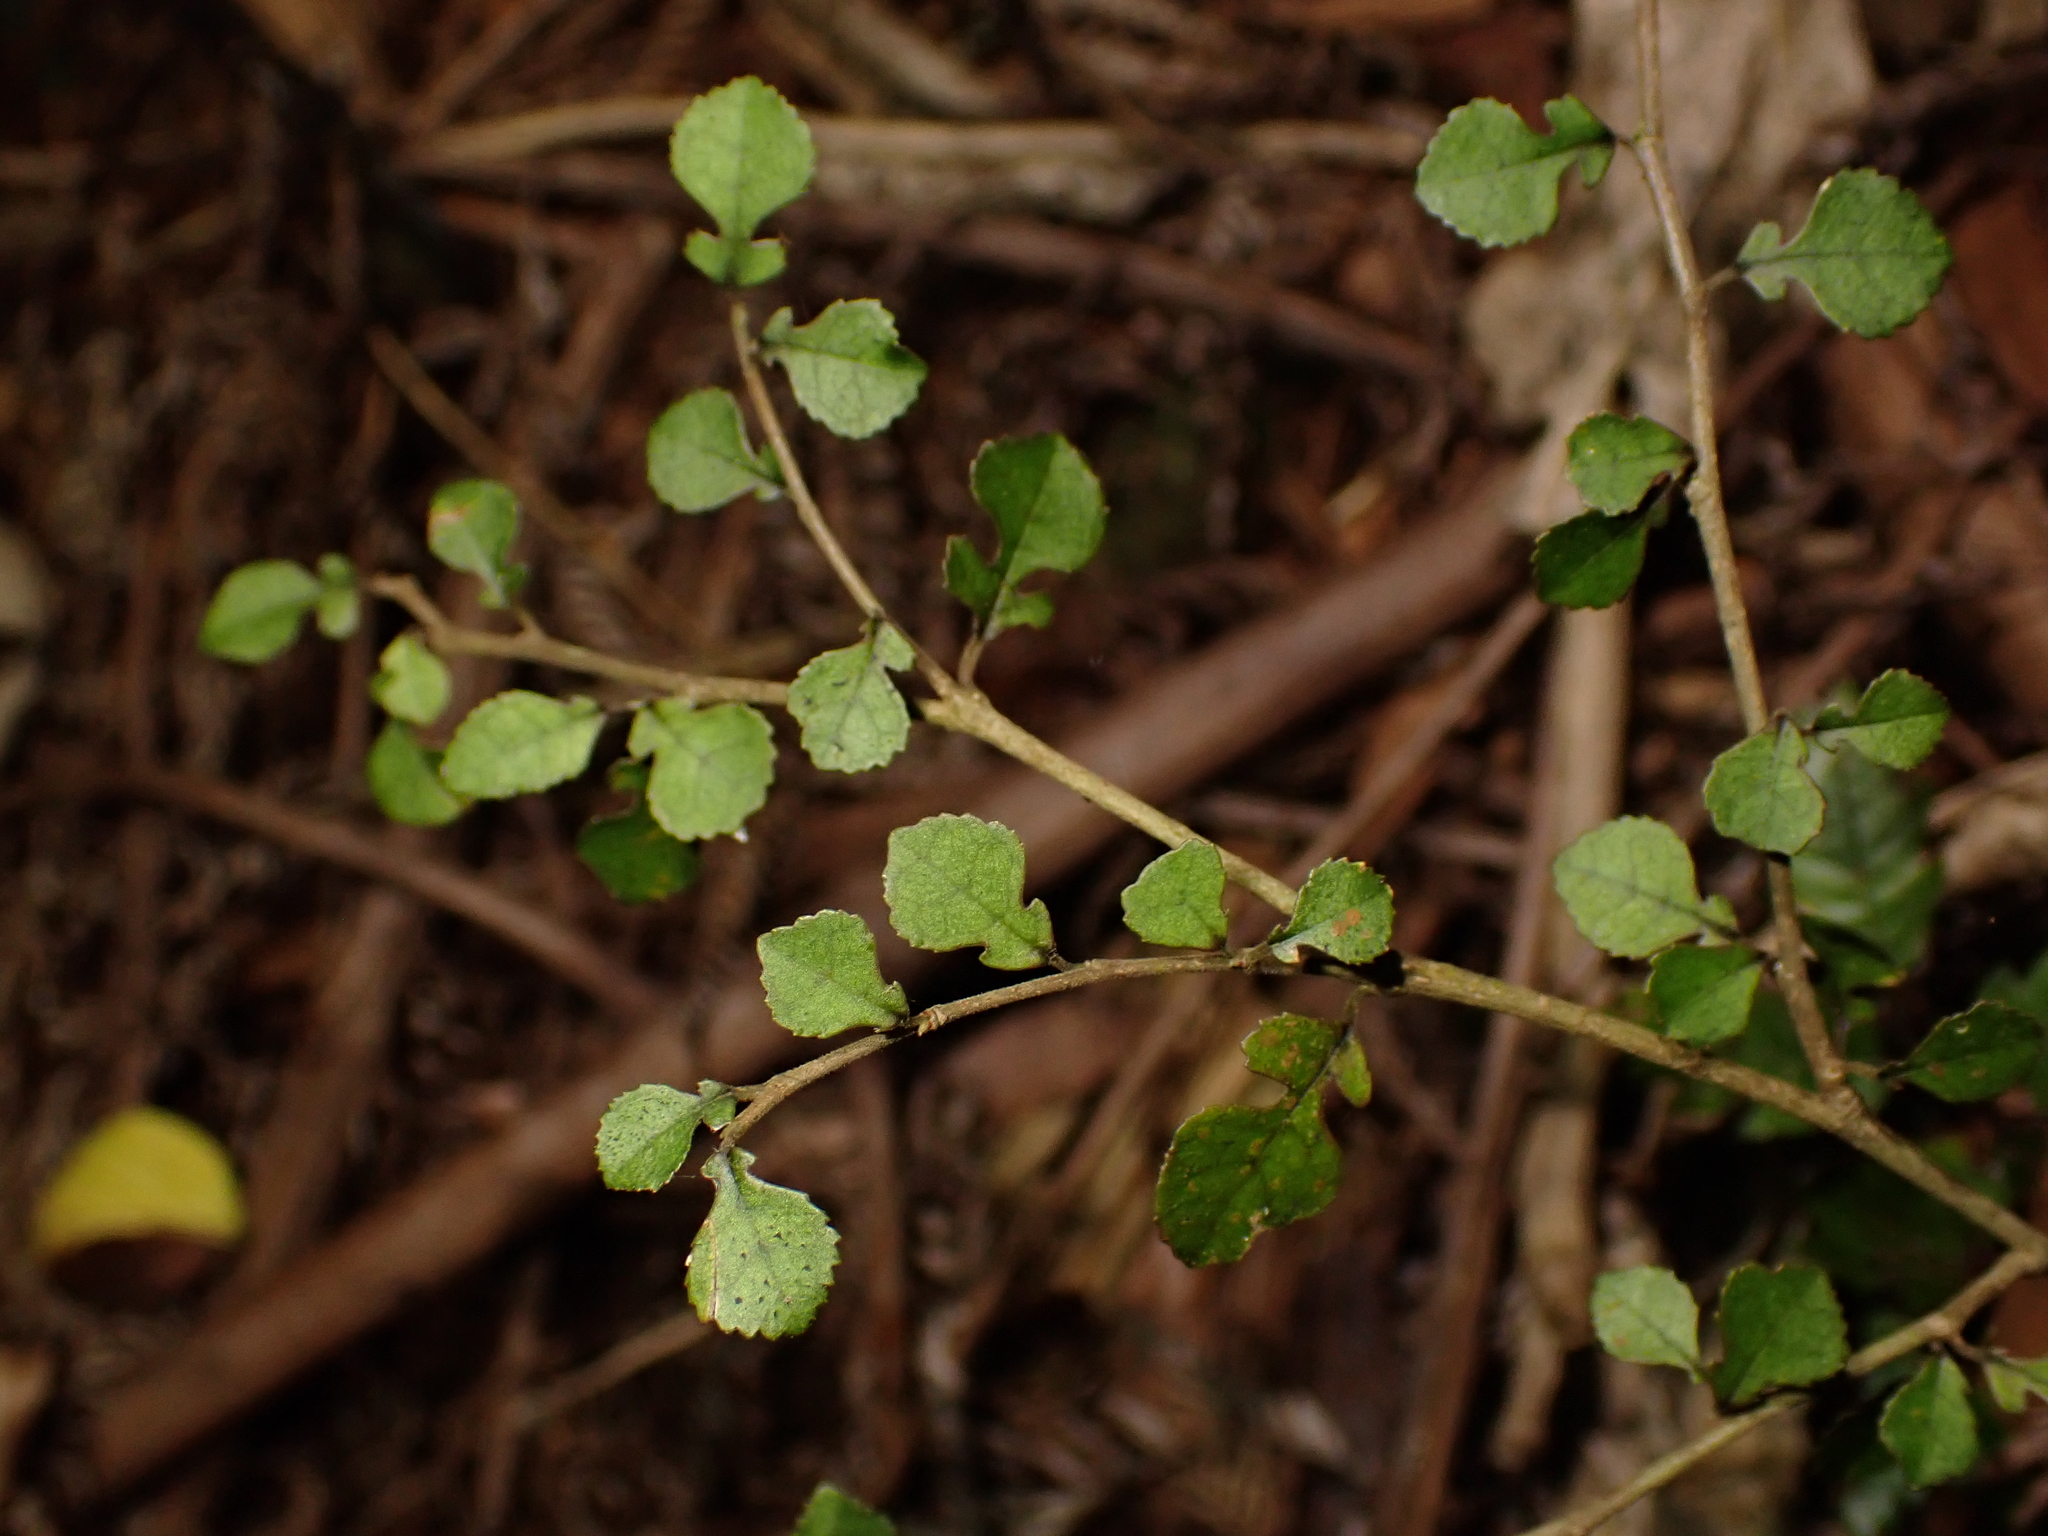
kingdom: Plantae
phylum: Tracheophyta
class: Magnoliopsida
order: Rosales
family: Moraceae
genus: Paratrophis
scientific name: Paratrophis microphylla
